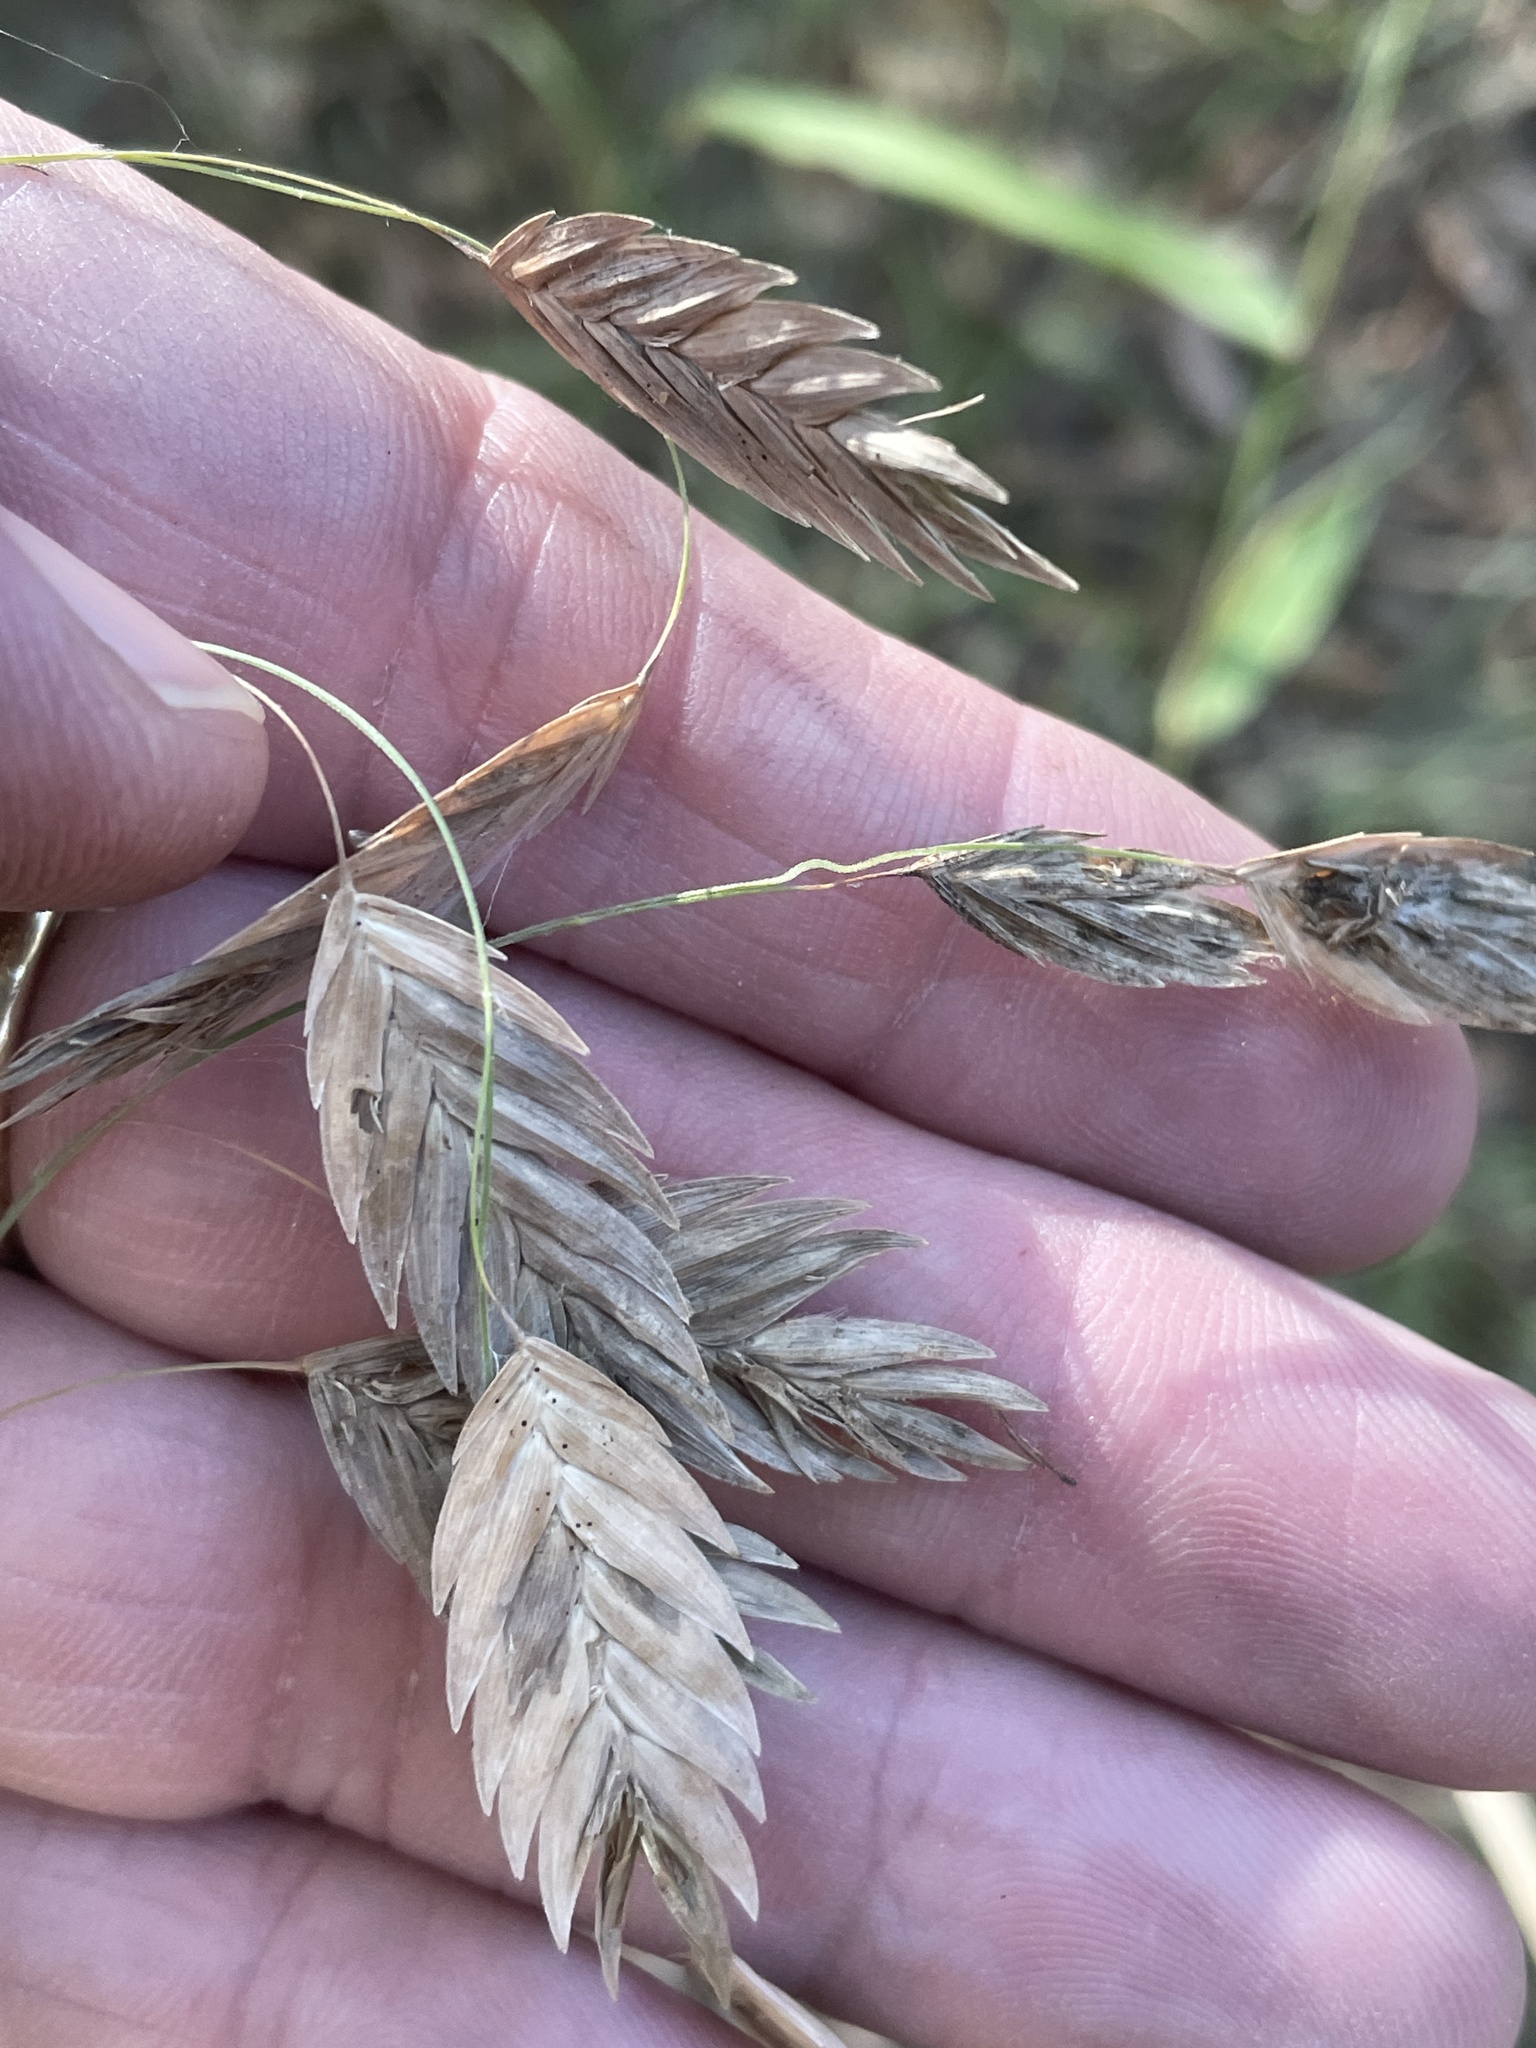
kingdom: Plantae
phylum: Tracheophyta
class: Liliopsida
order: Poales
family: Poaceae
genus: Chasmanthium
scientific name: Chasmanthium latifolium
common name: Broad-leaved chasmanthium
